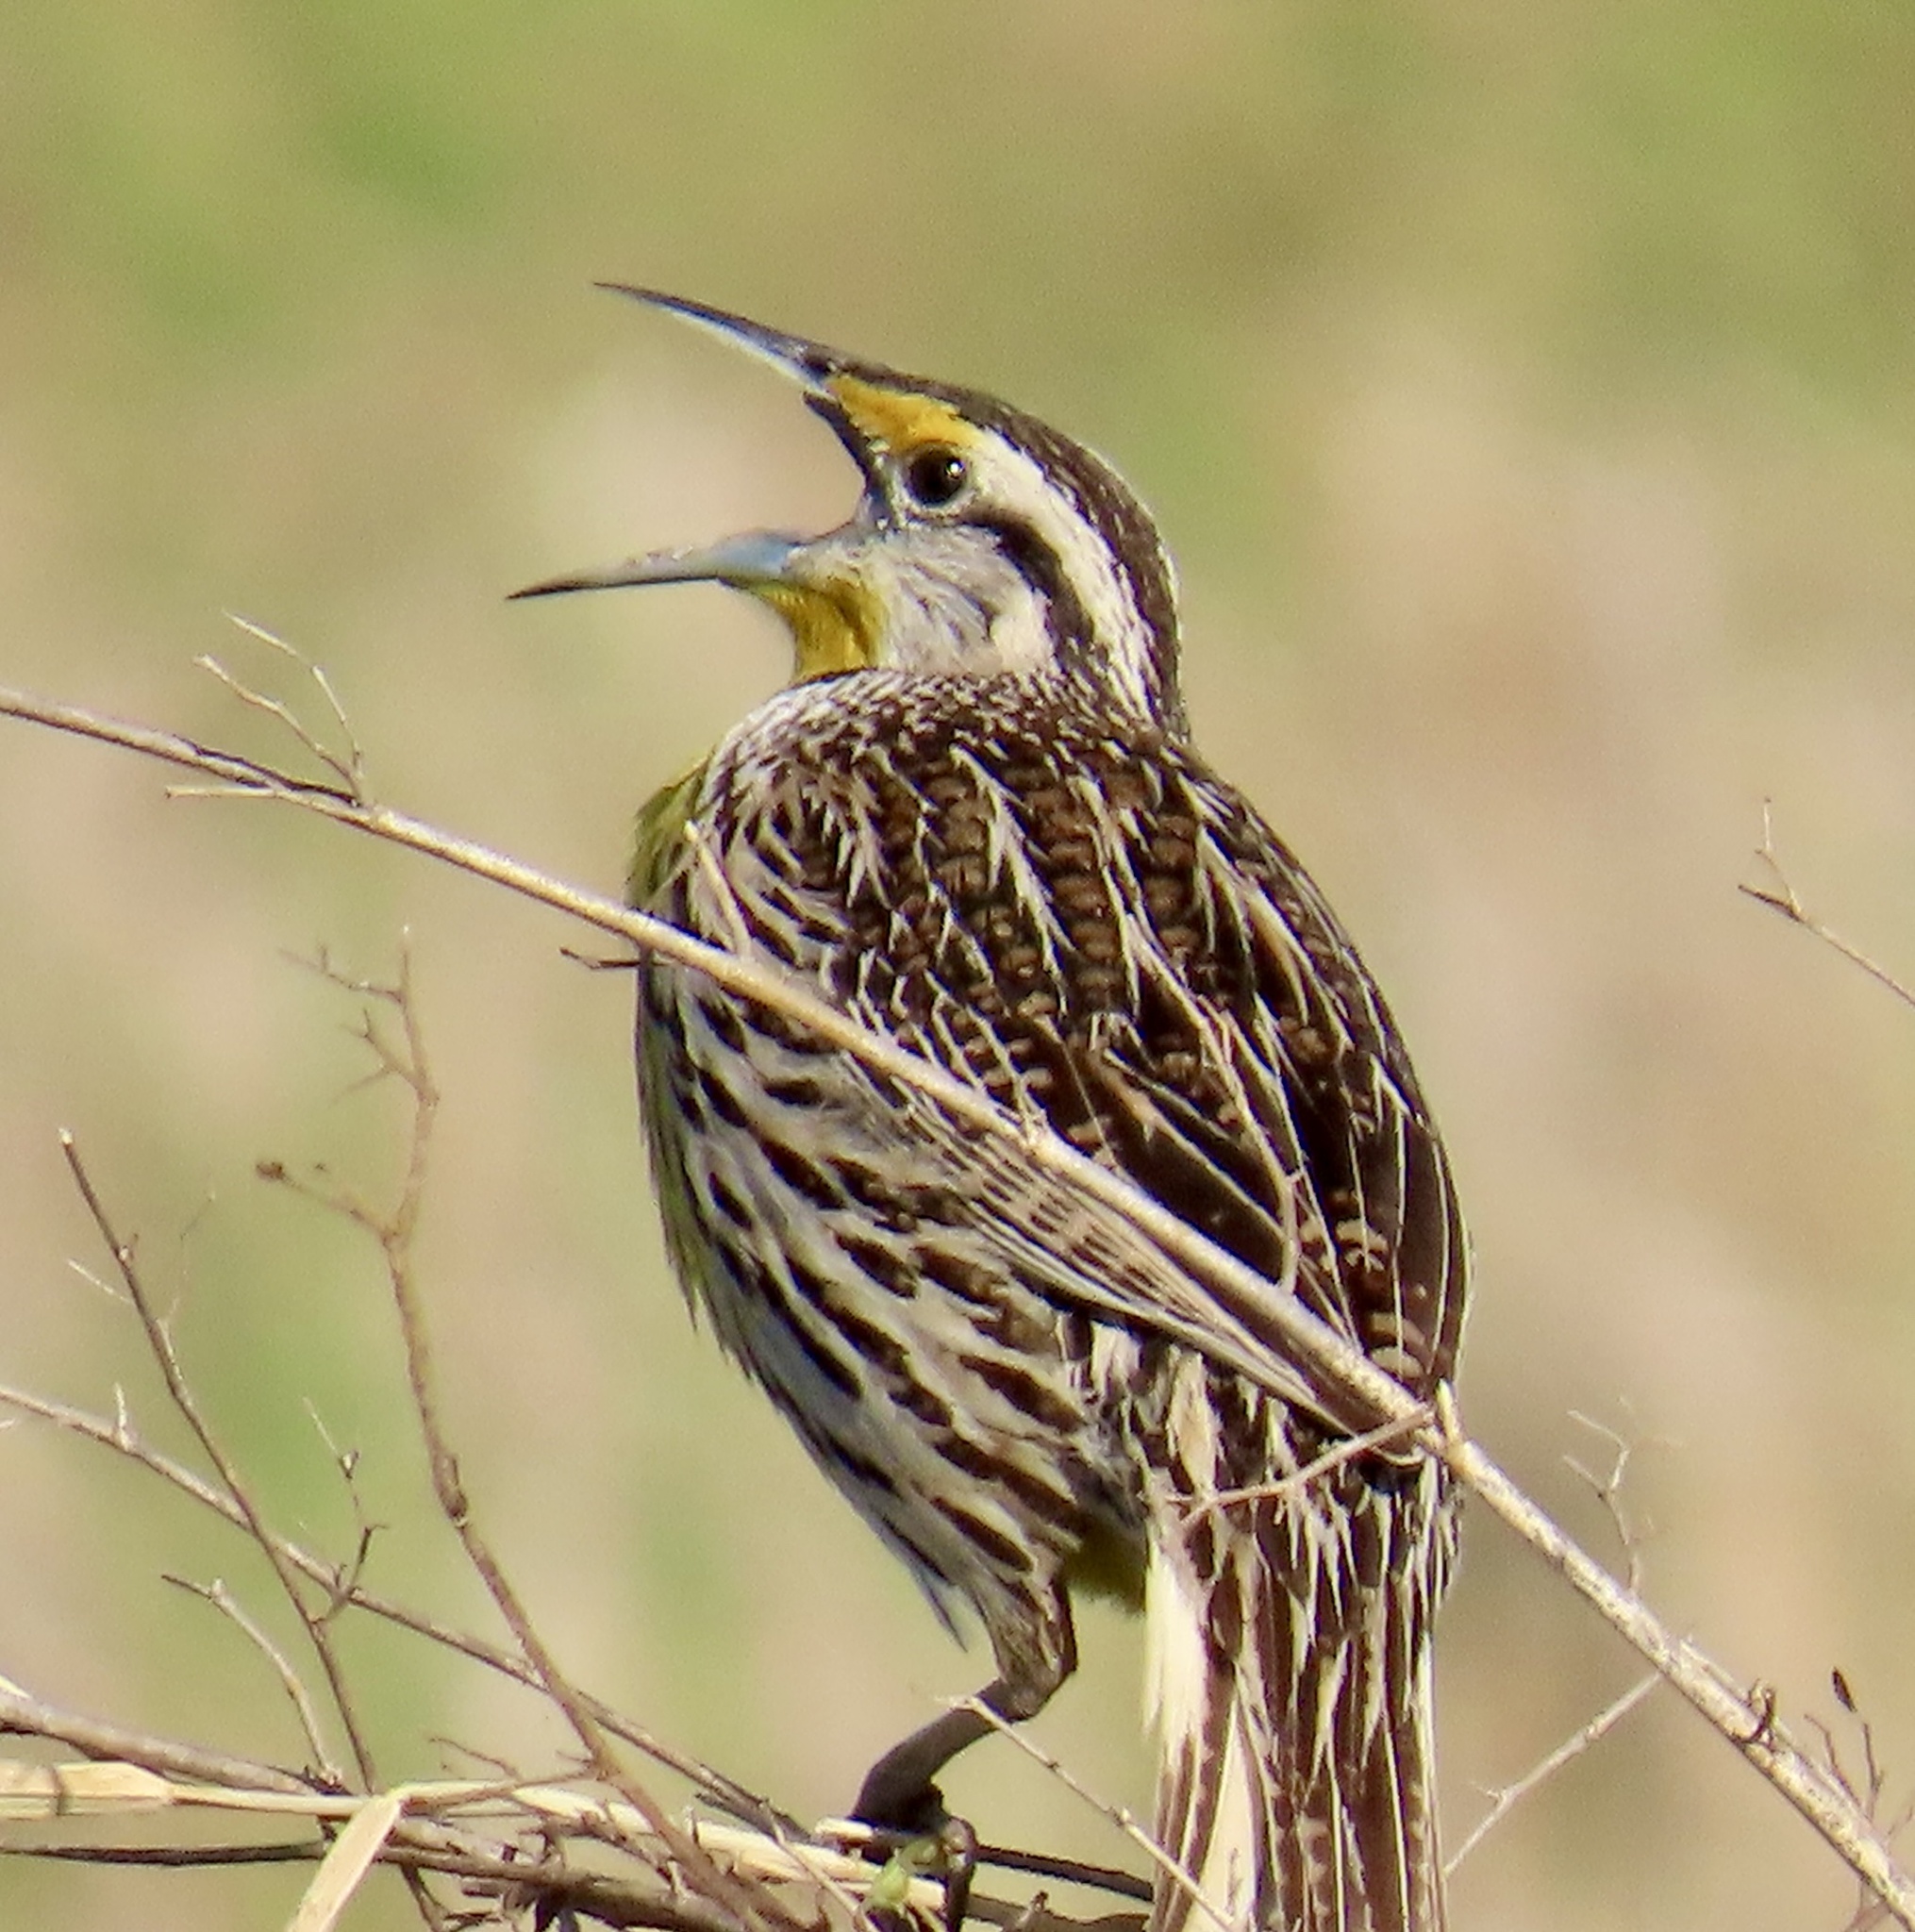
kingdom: Animalia
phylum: Chordata
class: Aves
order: Passeriformes
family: Icteridae
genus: Sturnella
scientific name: Sturnella magna
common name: Eastern meadowlark
